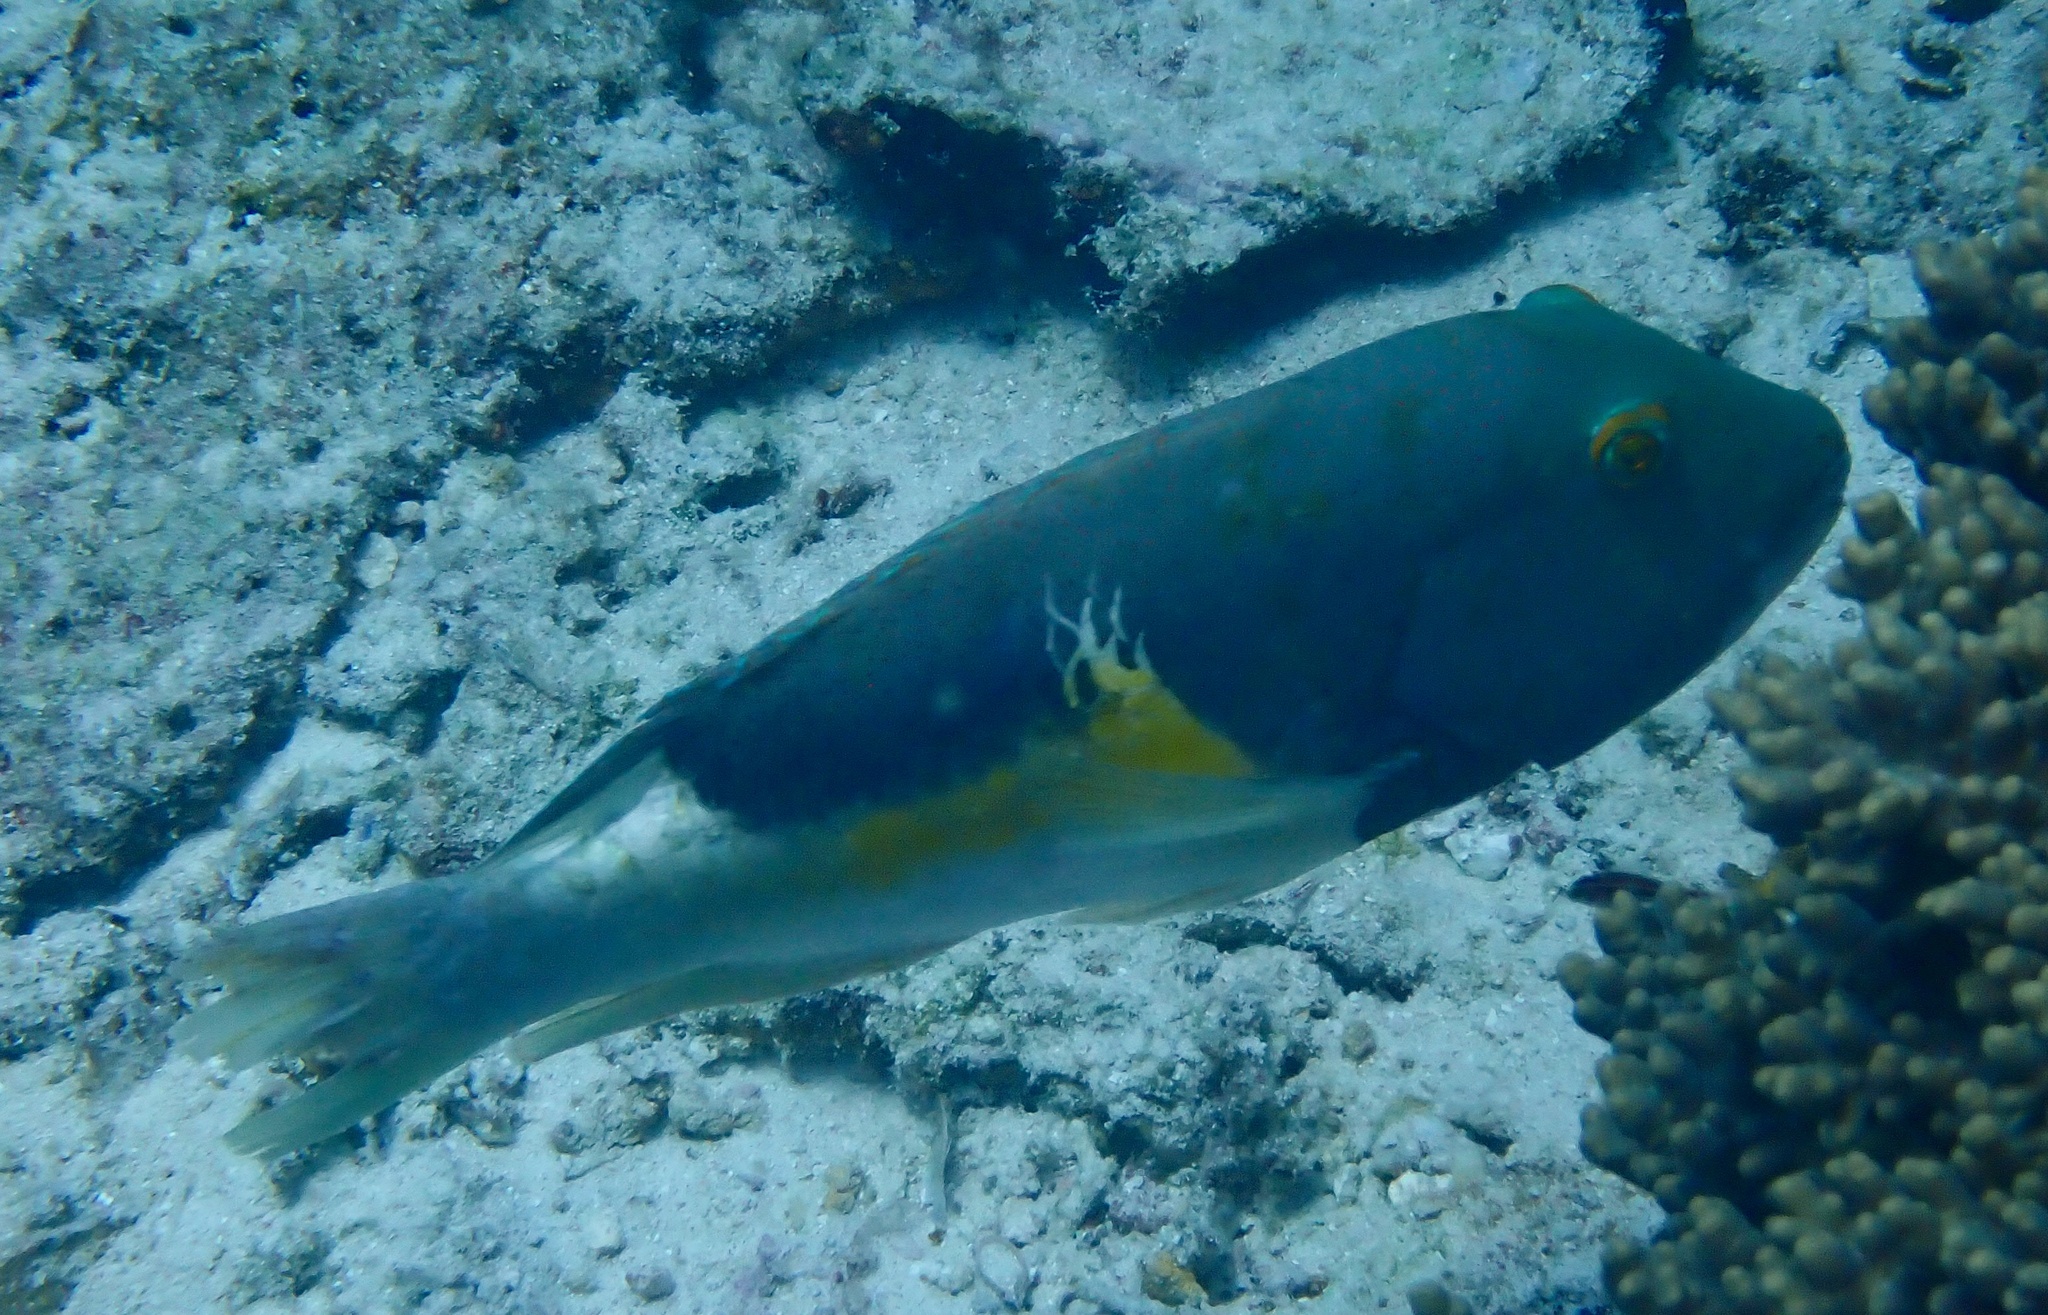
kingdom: Animalia
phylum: Chordata
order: Perciformes
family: Labridae
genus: Choerodon
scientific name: Choerodon anchorago
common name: Anchor tuskfish
